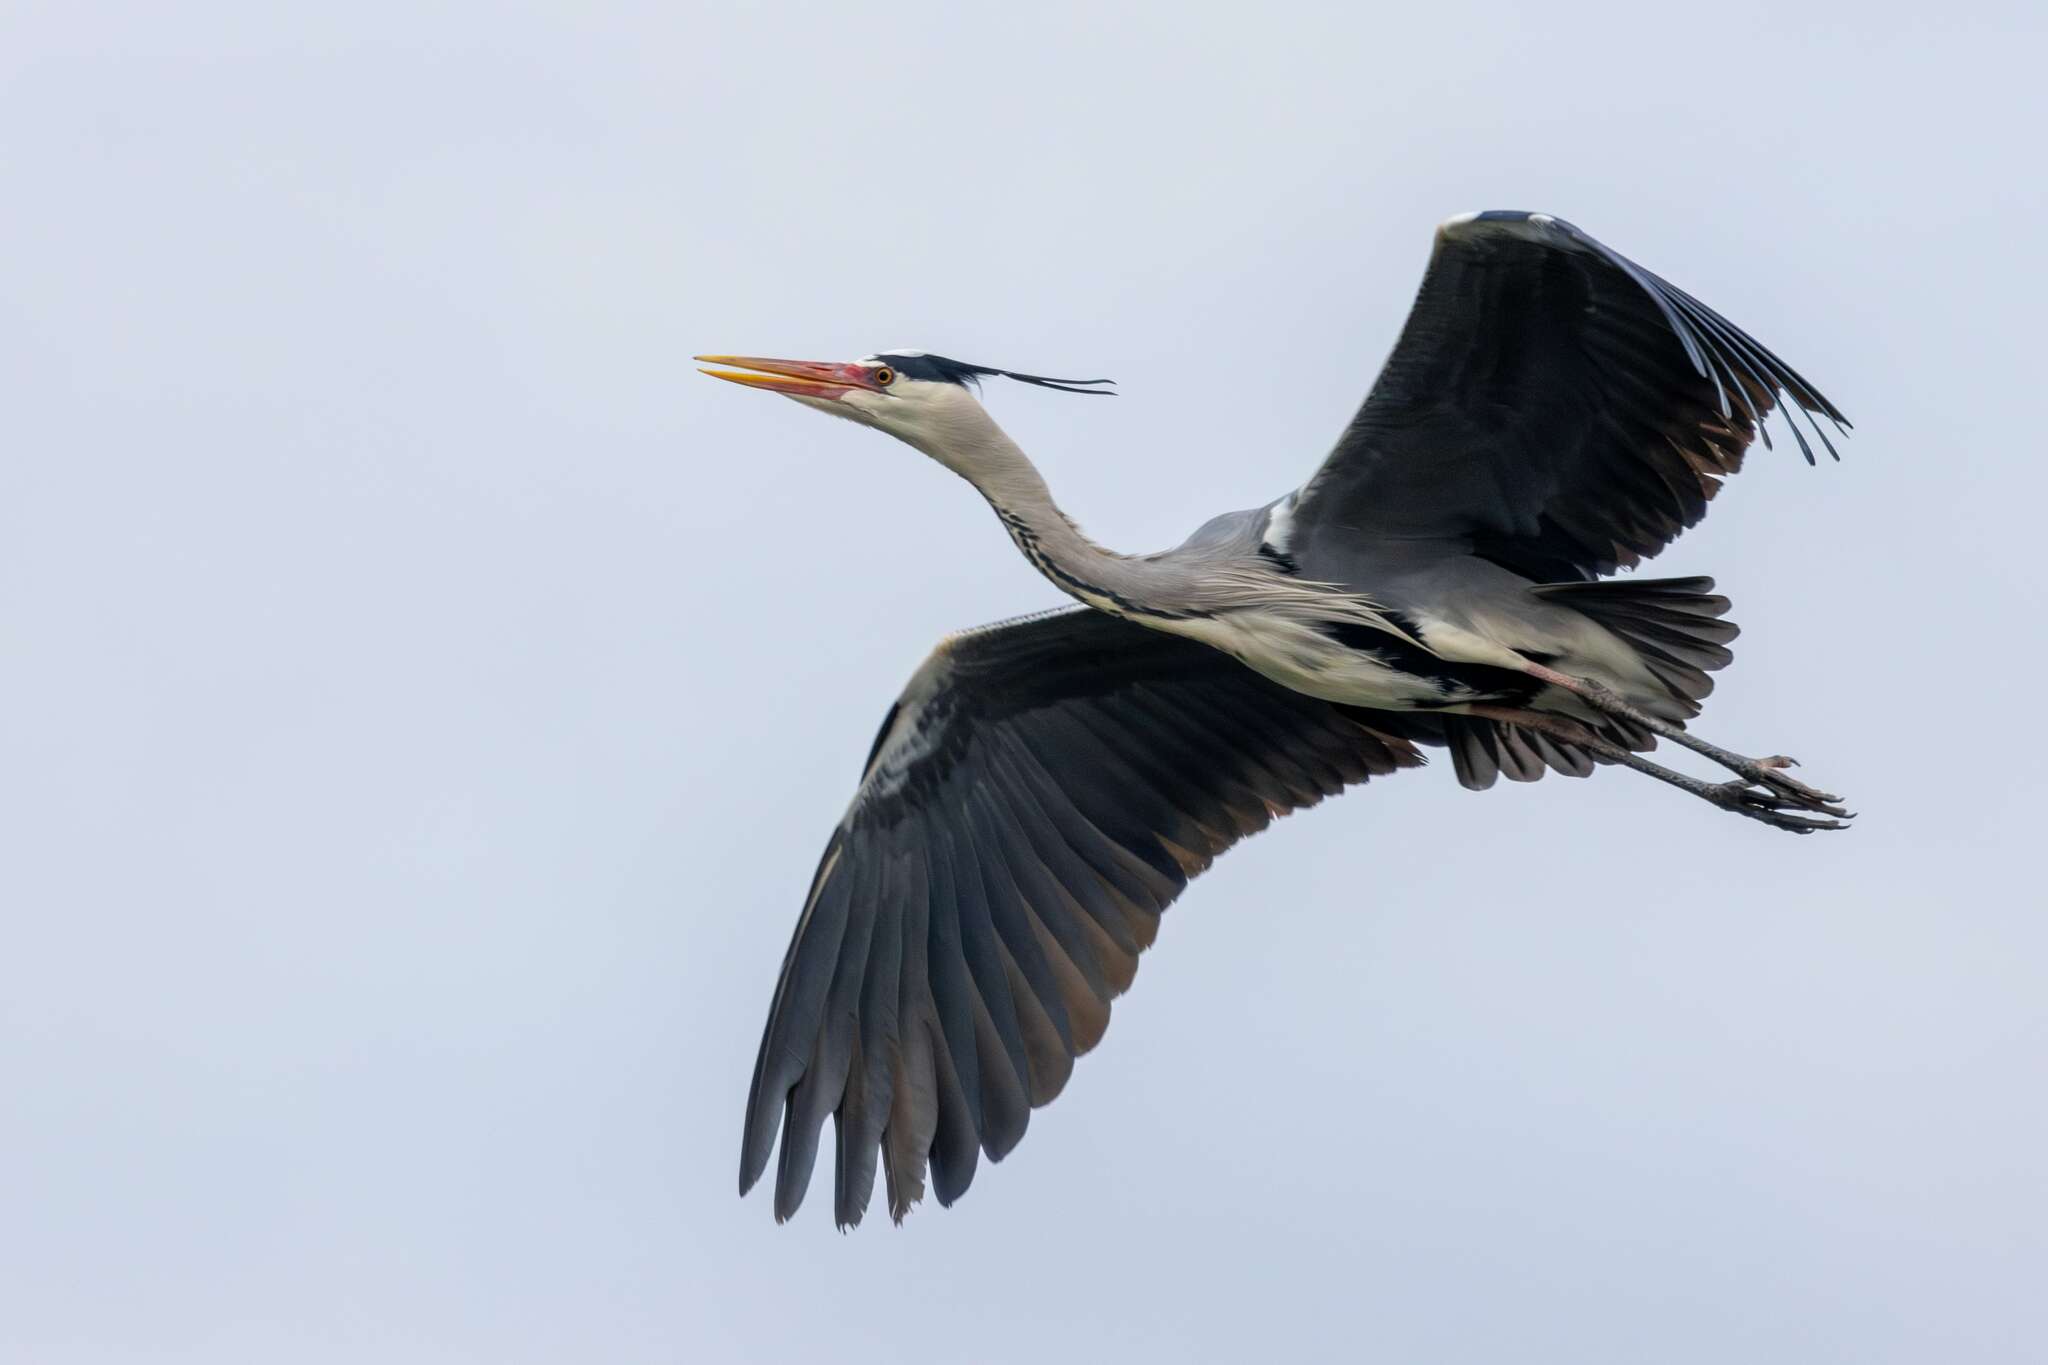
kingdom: Animalia
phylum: Chordata
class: Aves
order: Pelecaniformes
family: Ardeidae
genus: Ardea
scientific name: Ardea cinerea
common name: Grey heron
